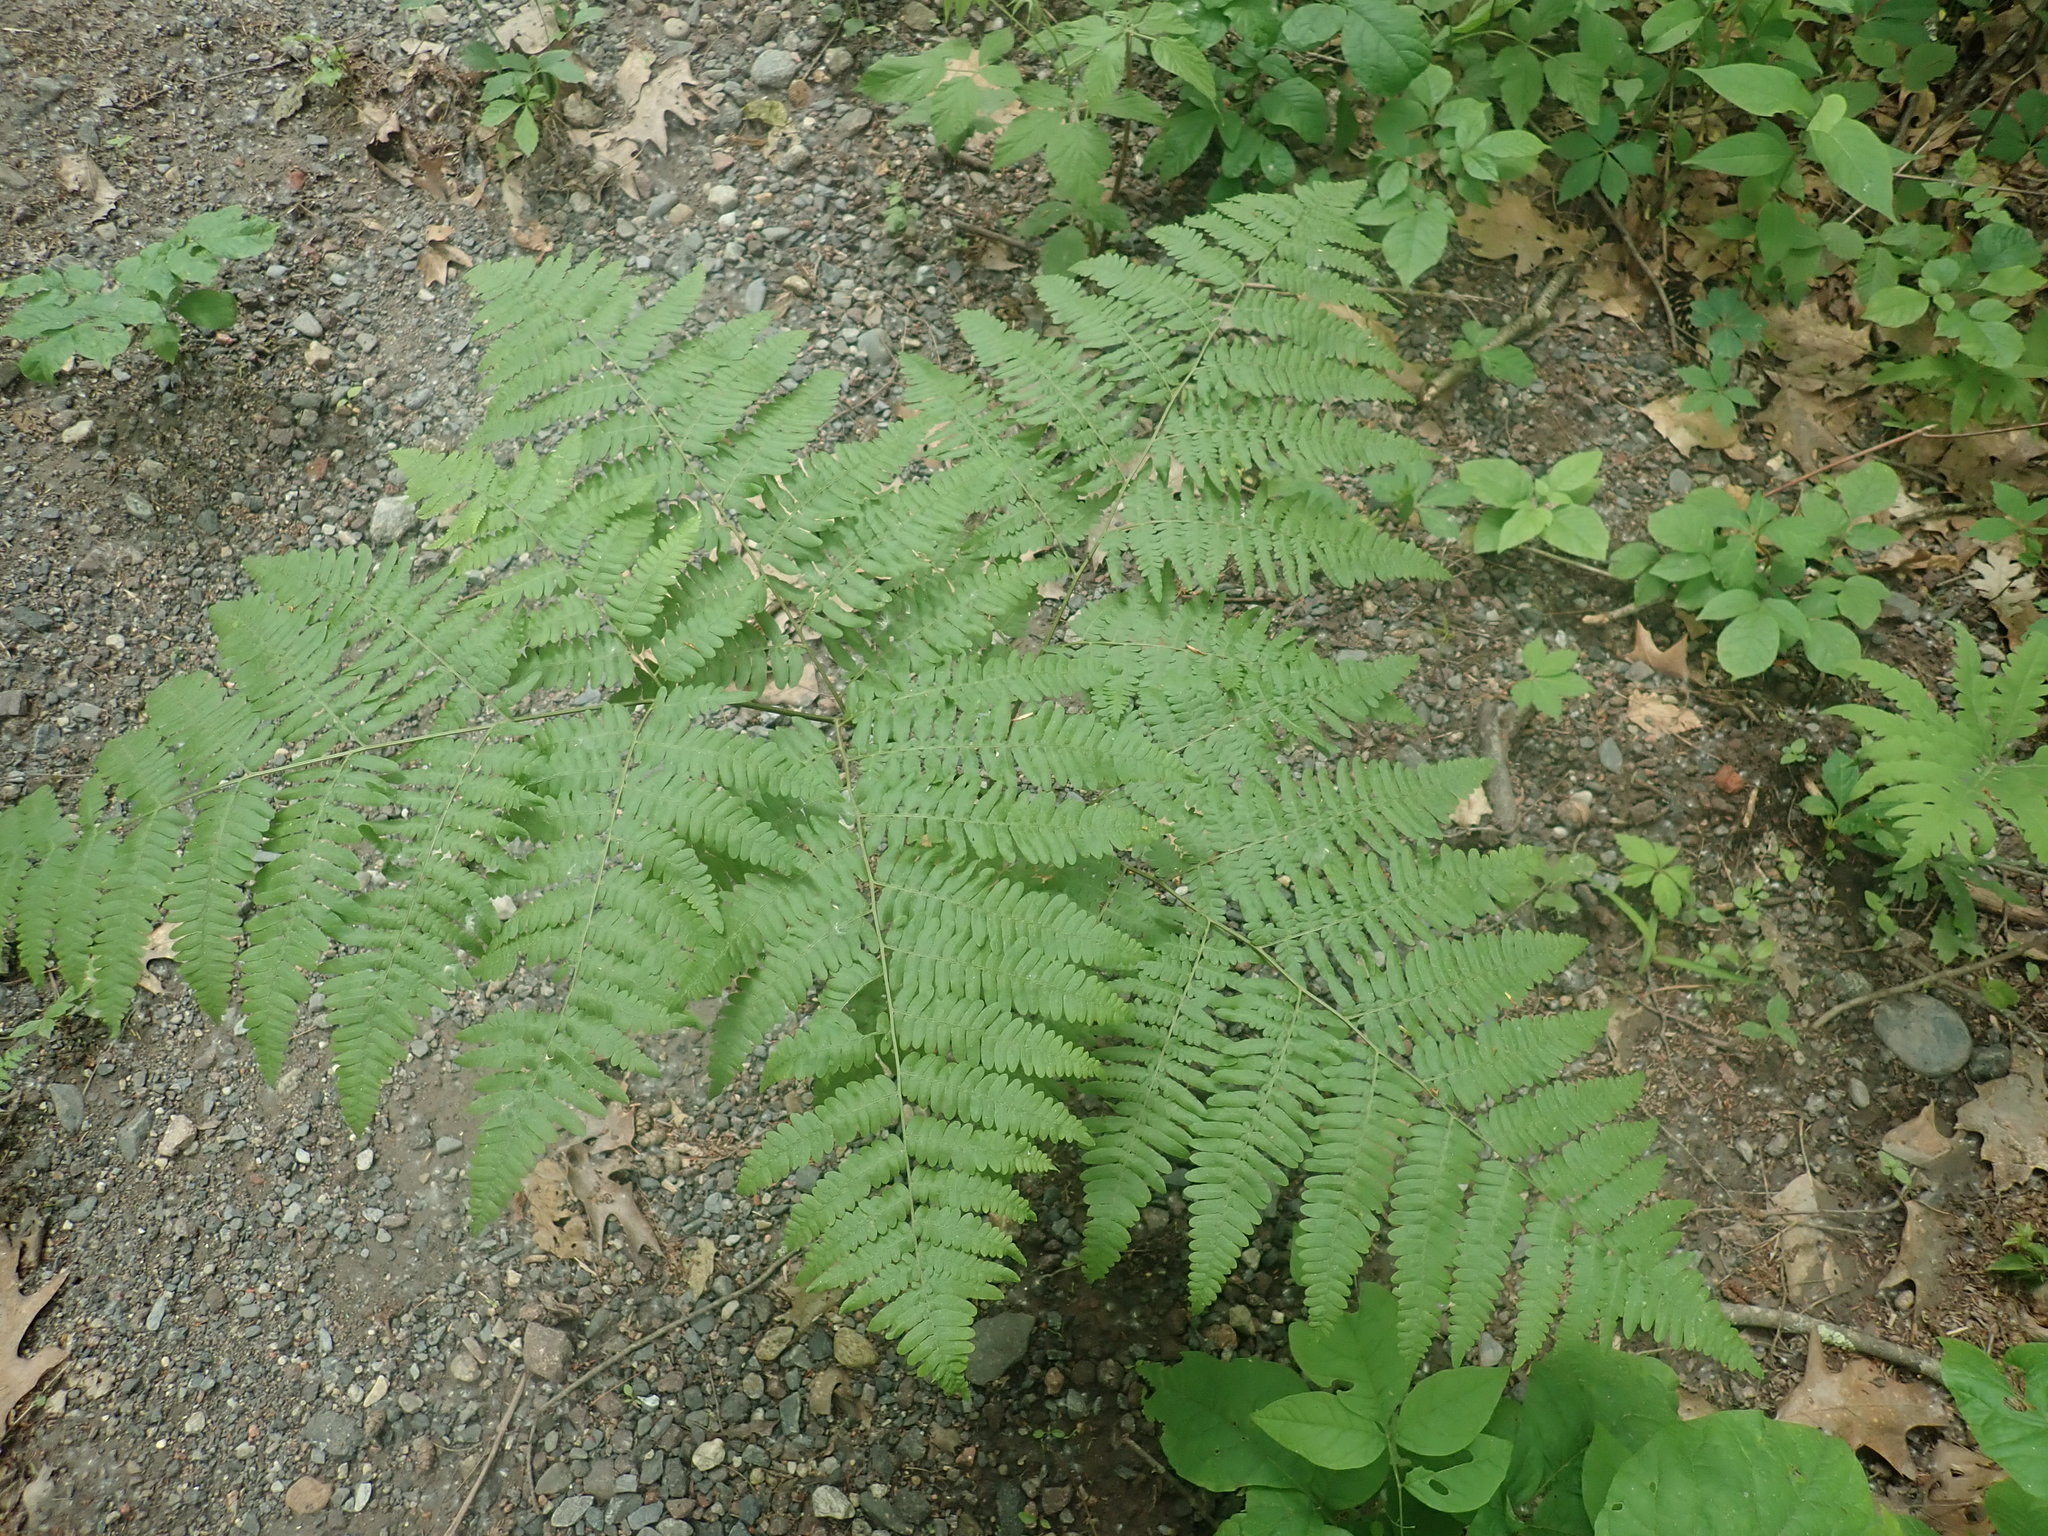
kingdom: Plantae
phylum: Tracheophyta
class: Polypodiopsida
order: Polypodiales
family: Dennstaedtiaceae
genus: Pteridium
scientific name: Pteridium aquilinum
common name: Bracken
